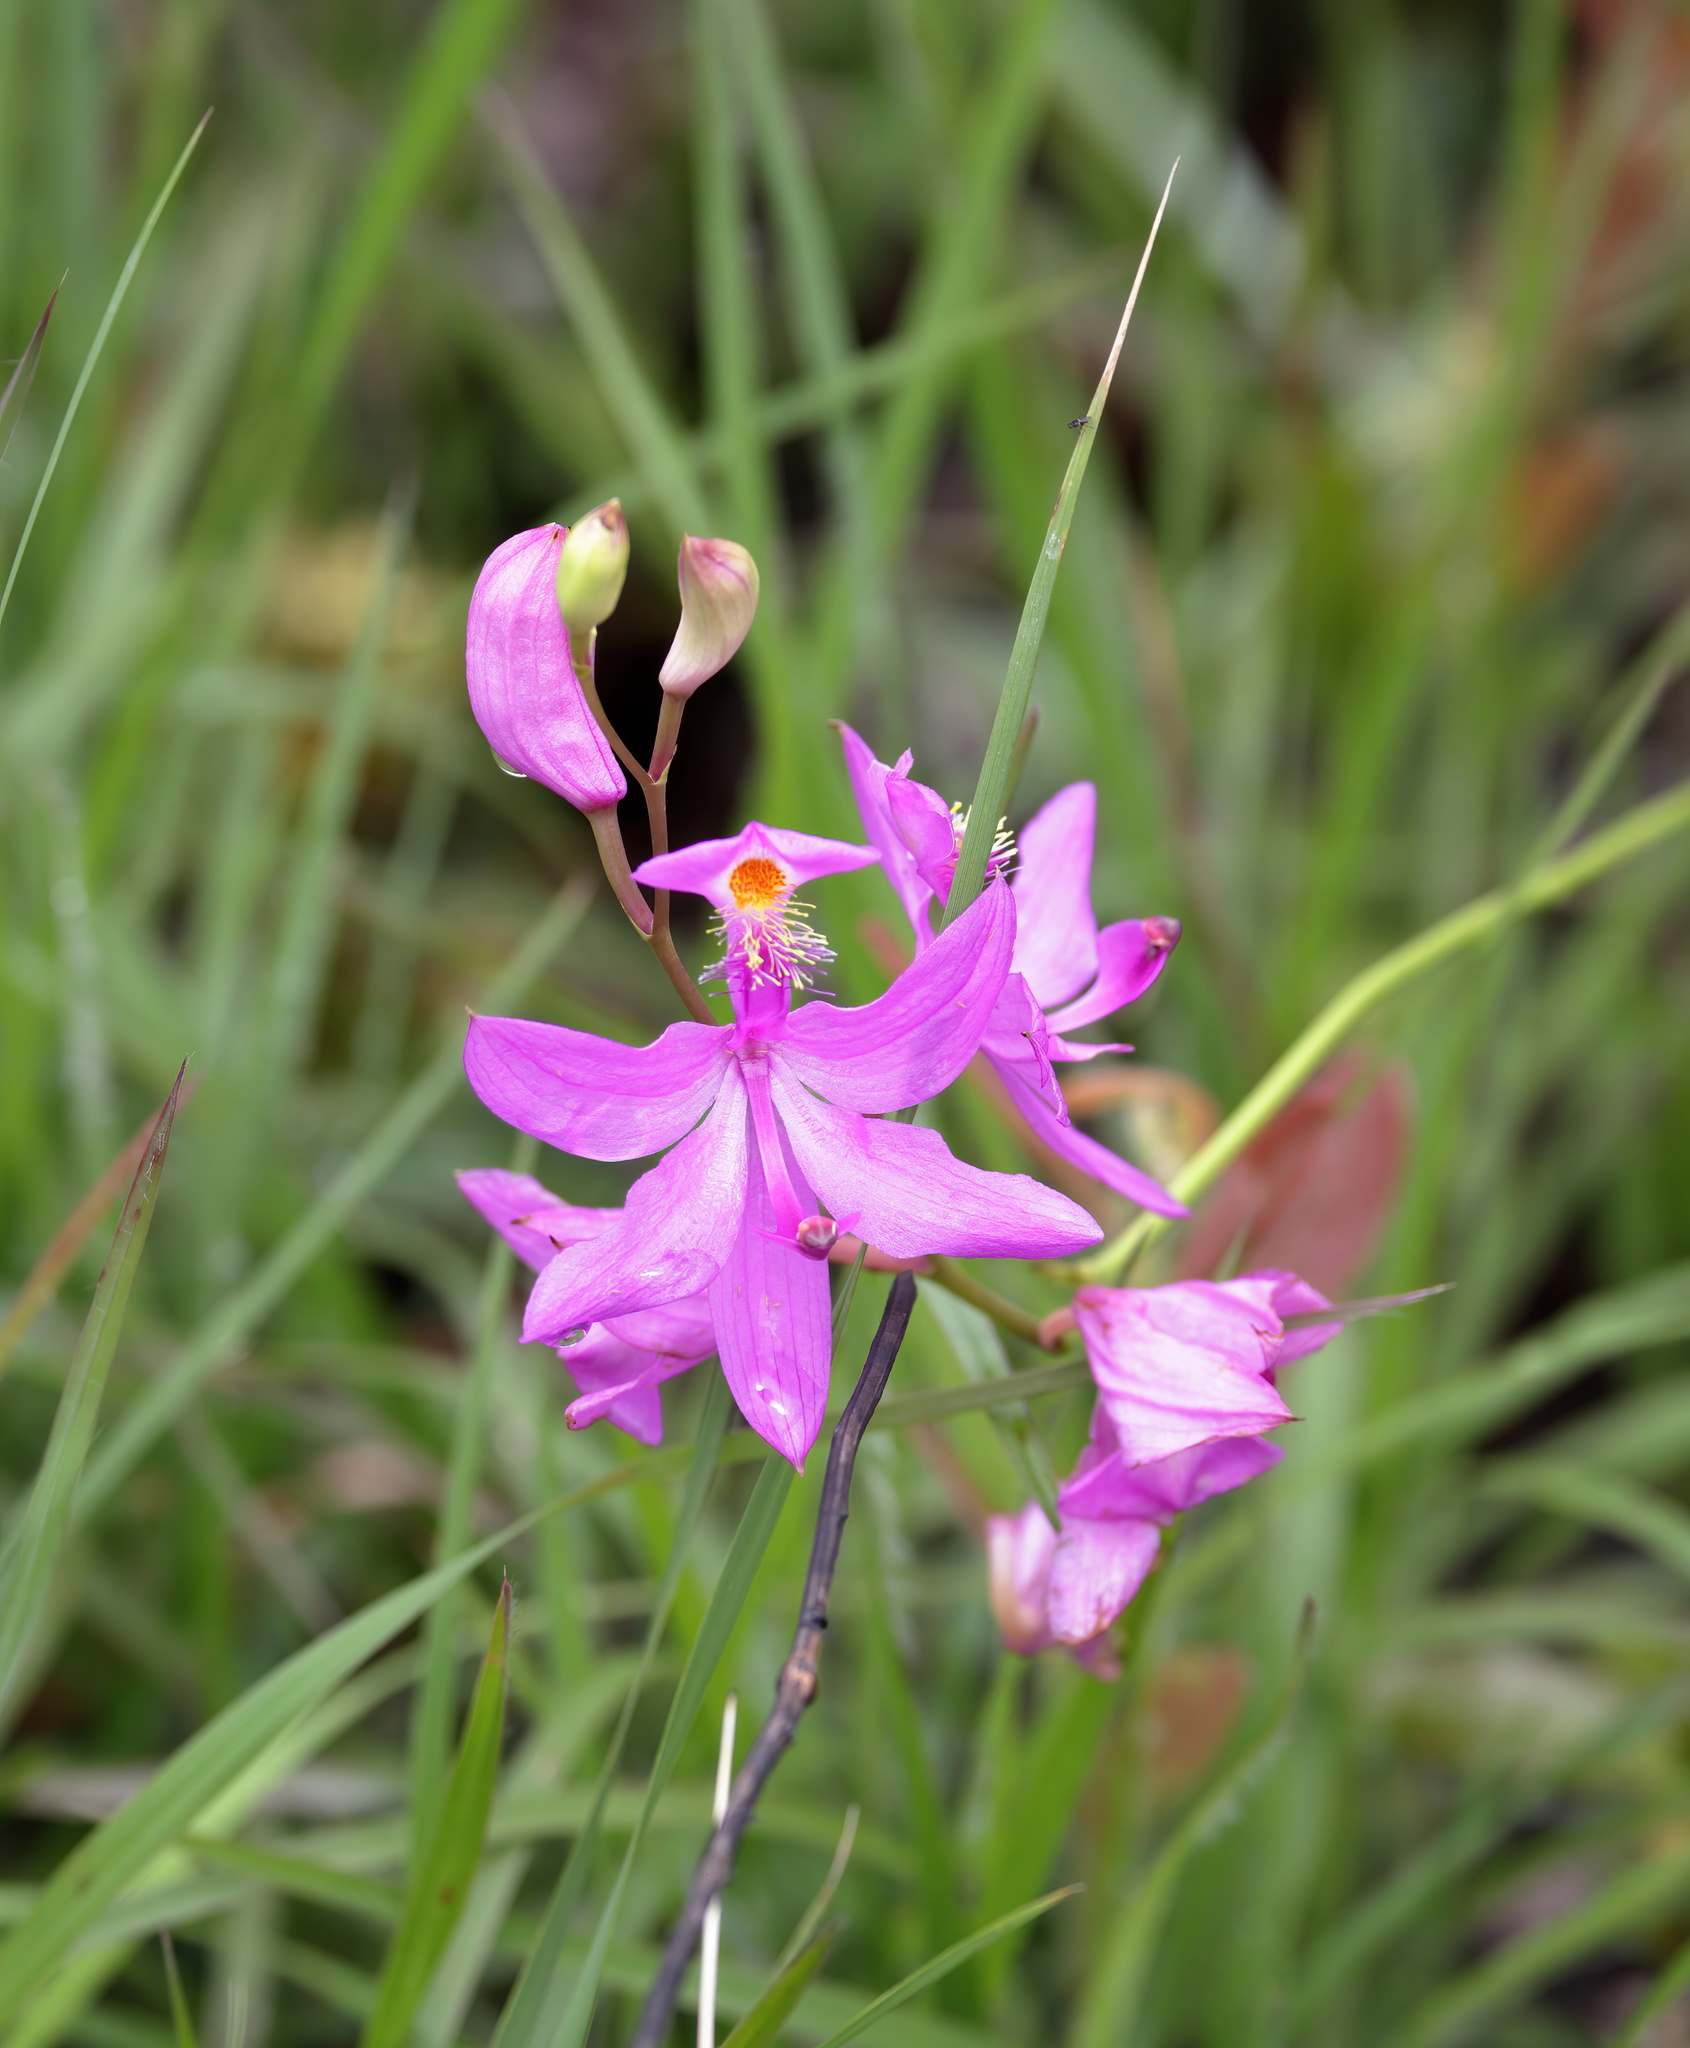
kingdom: Plantae
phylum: Tracheophyta
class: Liliopsida
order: Asparagales
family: Orchidaceae
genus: Calopogon
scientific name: Calopogon tuberosus
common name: Grass-pink
